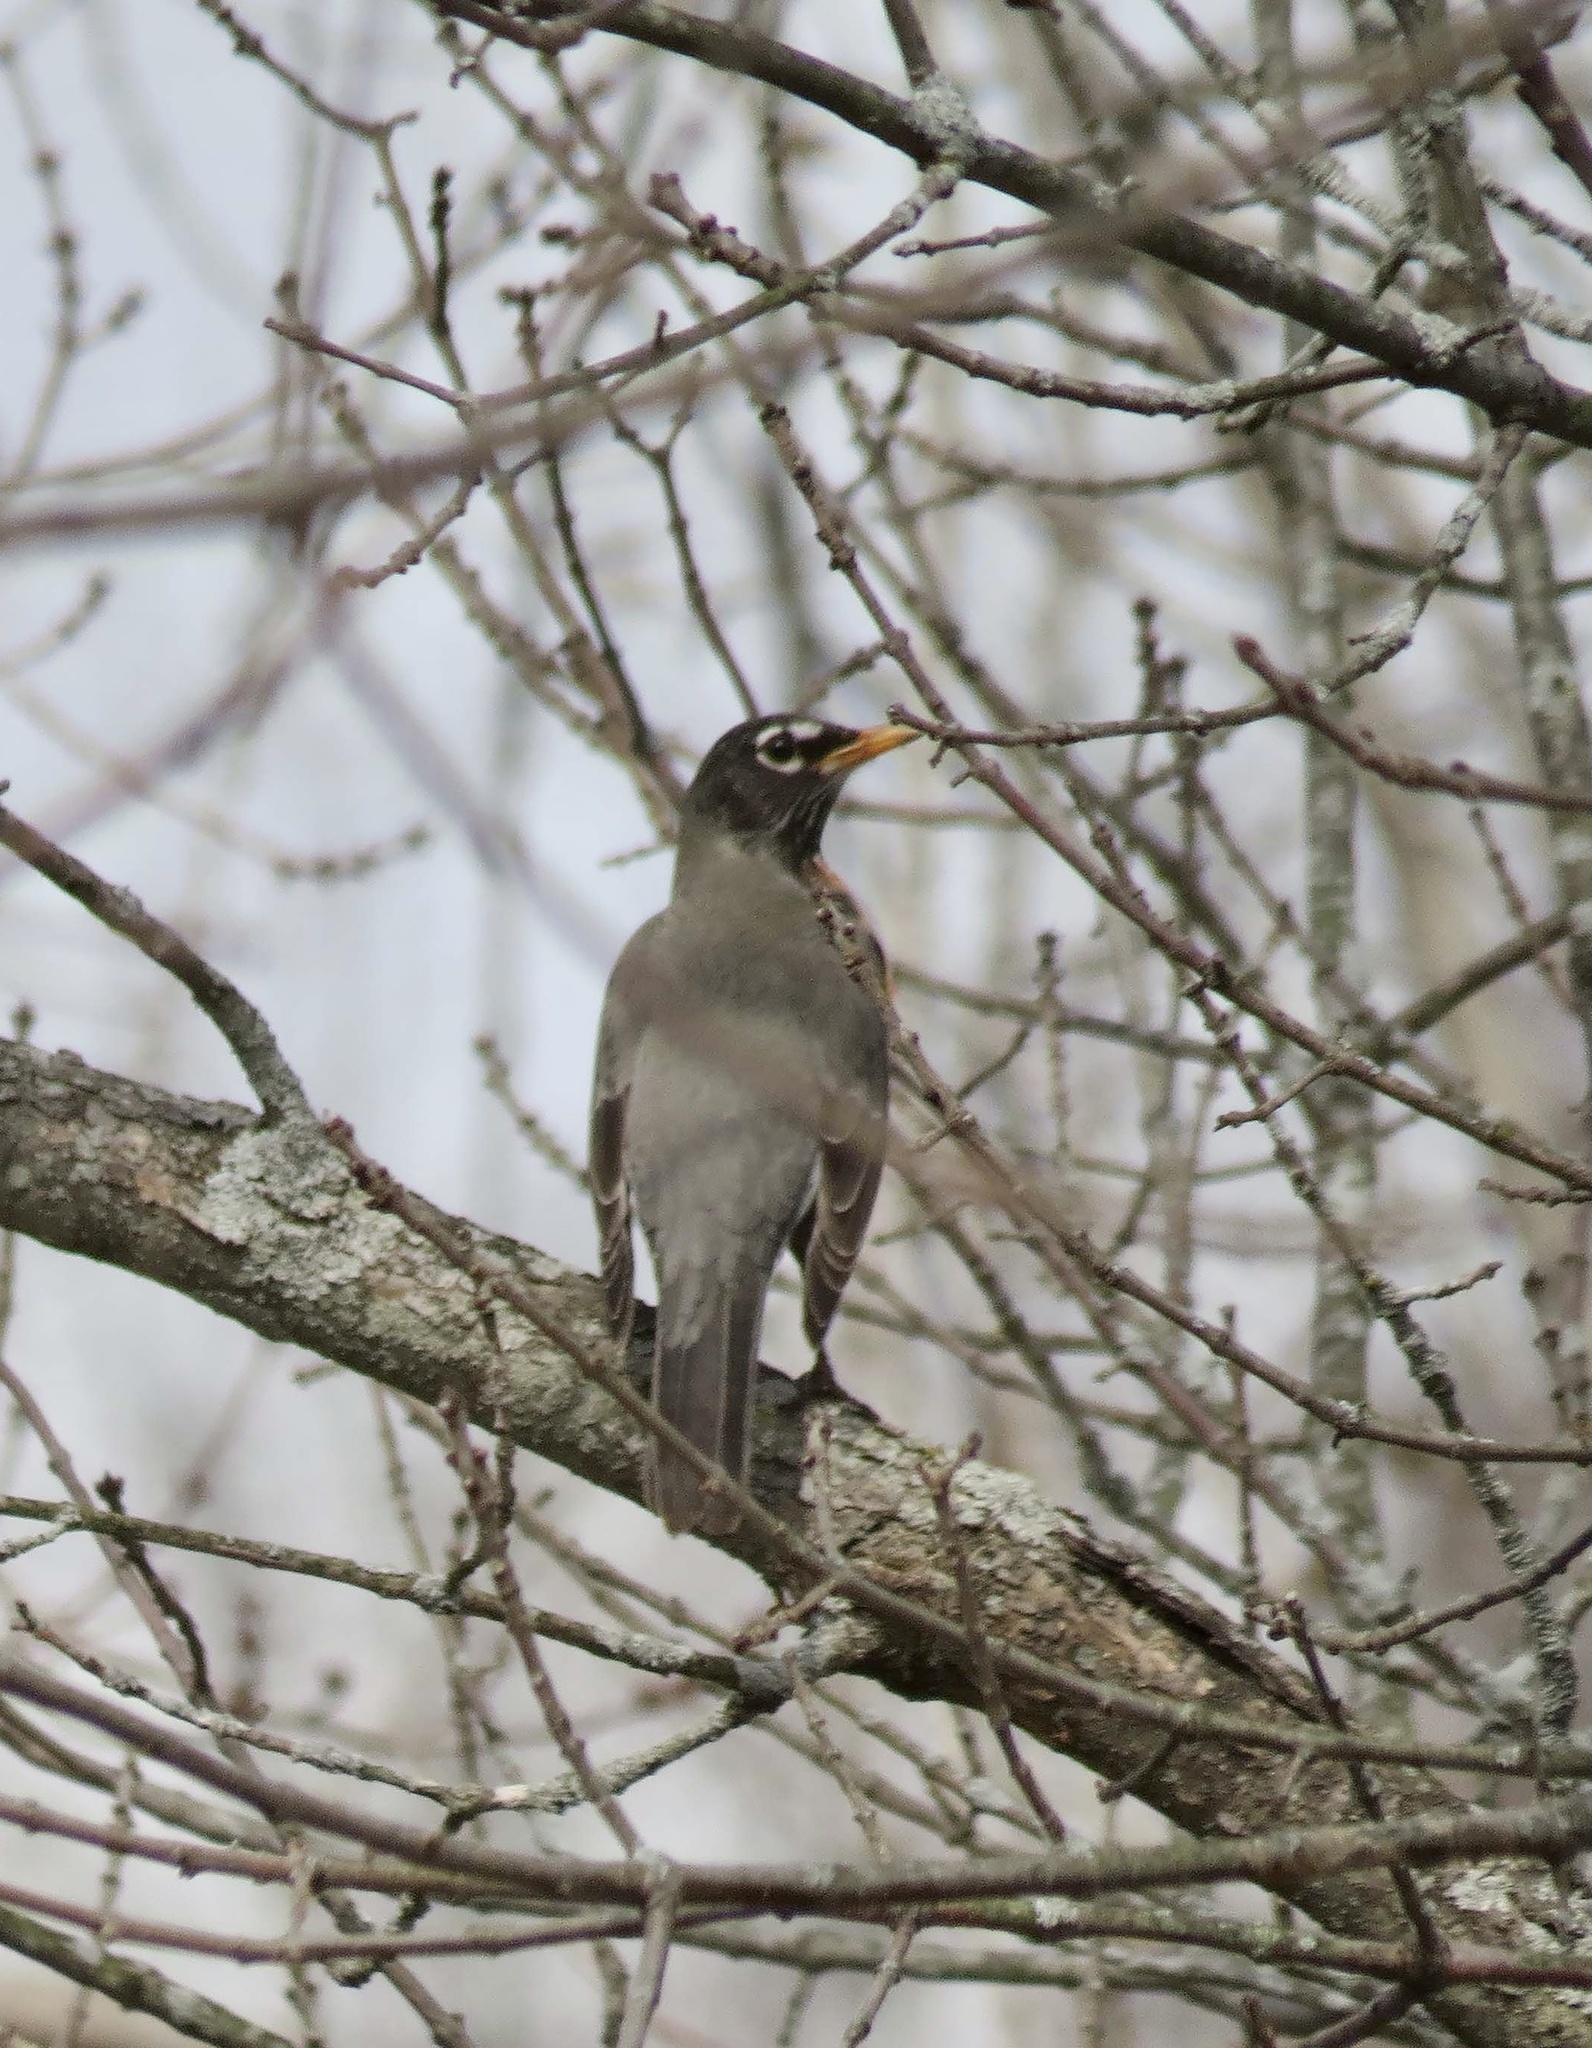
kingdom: Animalia
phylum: Chordata
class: Aves
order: Passeriformes
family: Turdidae
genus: Turdus
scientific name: Turdus migratorius
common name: American robin
